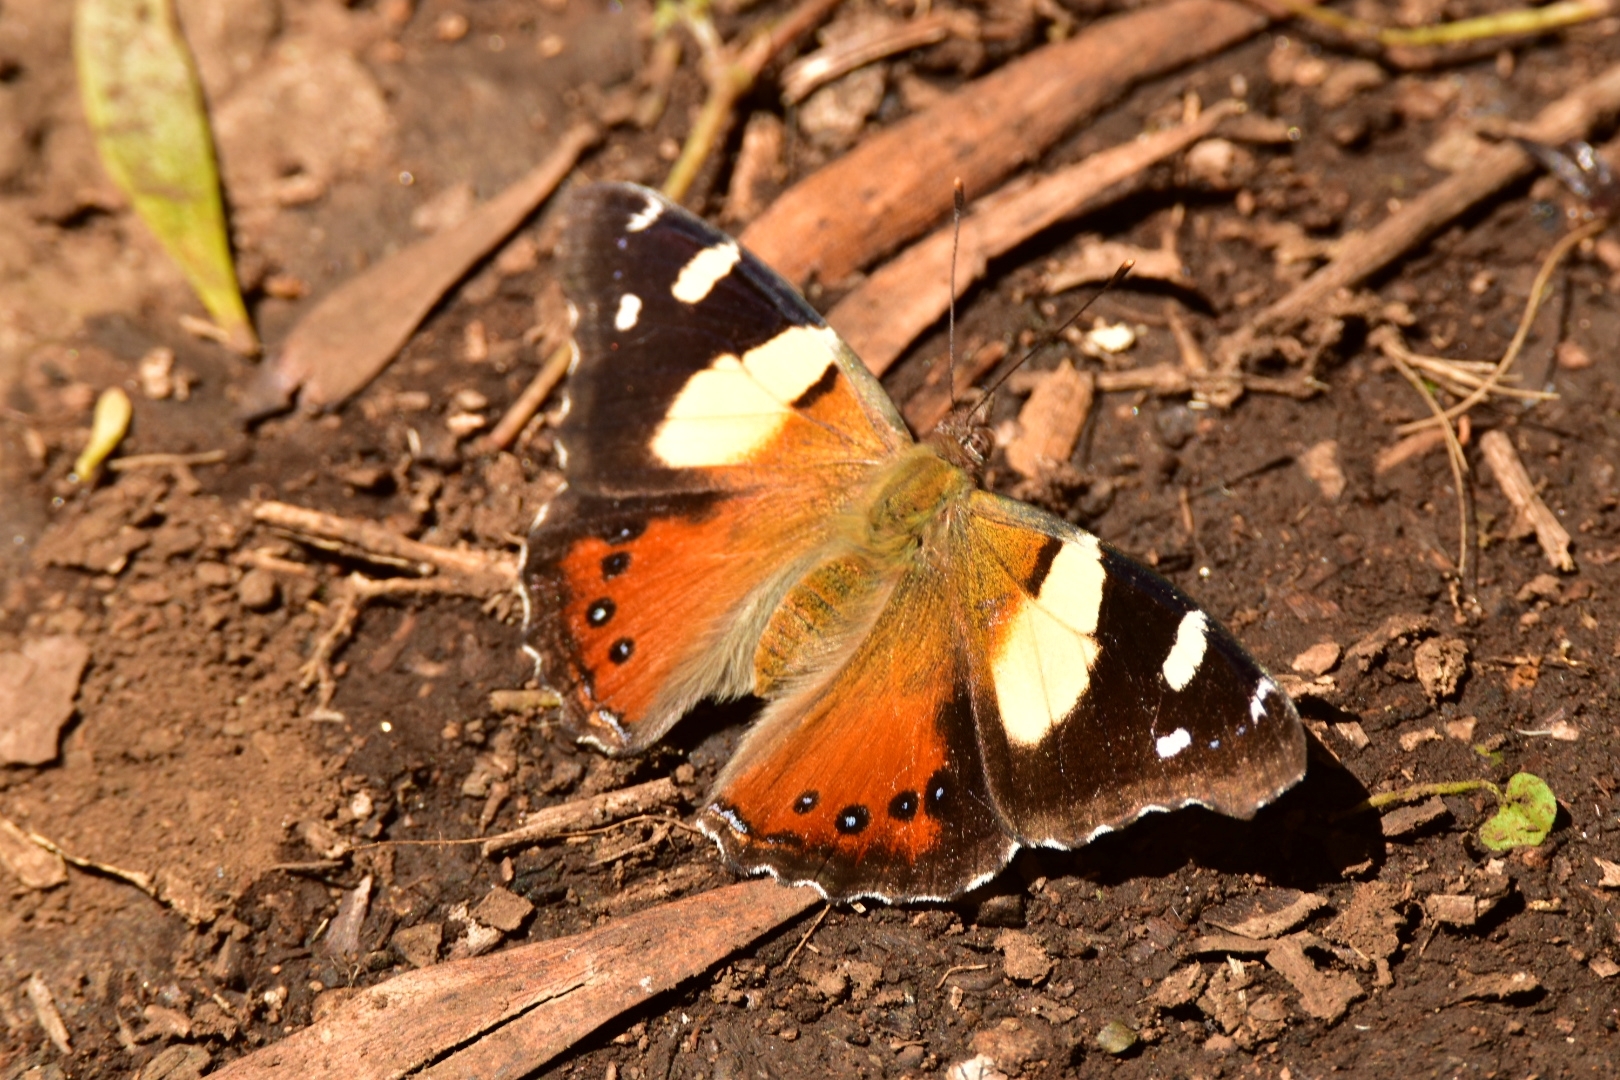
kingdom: Animalia
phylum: Arthropoda
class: Insecta
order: Lepidoptera
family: Nymphalidae
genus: Vanessa
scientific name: Vanessa itea
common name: Yellow admiral
